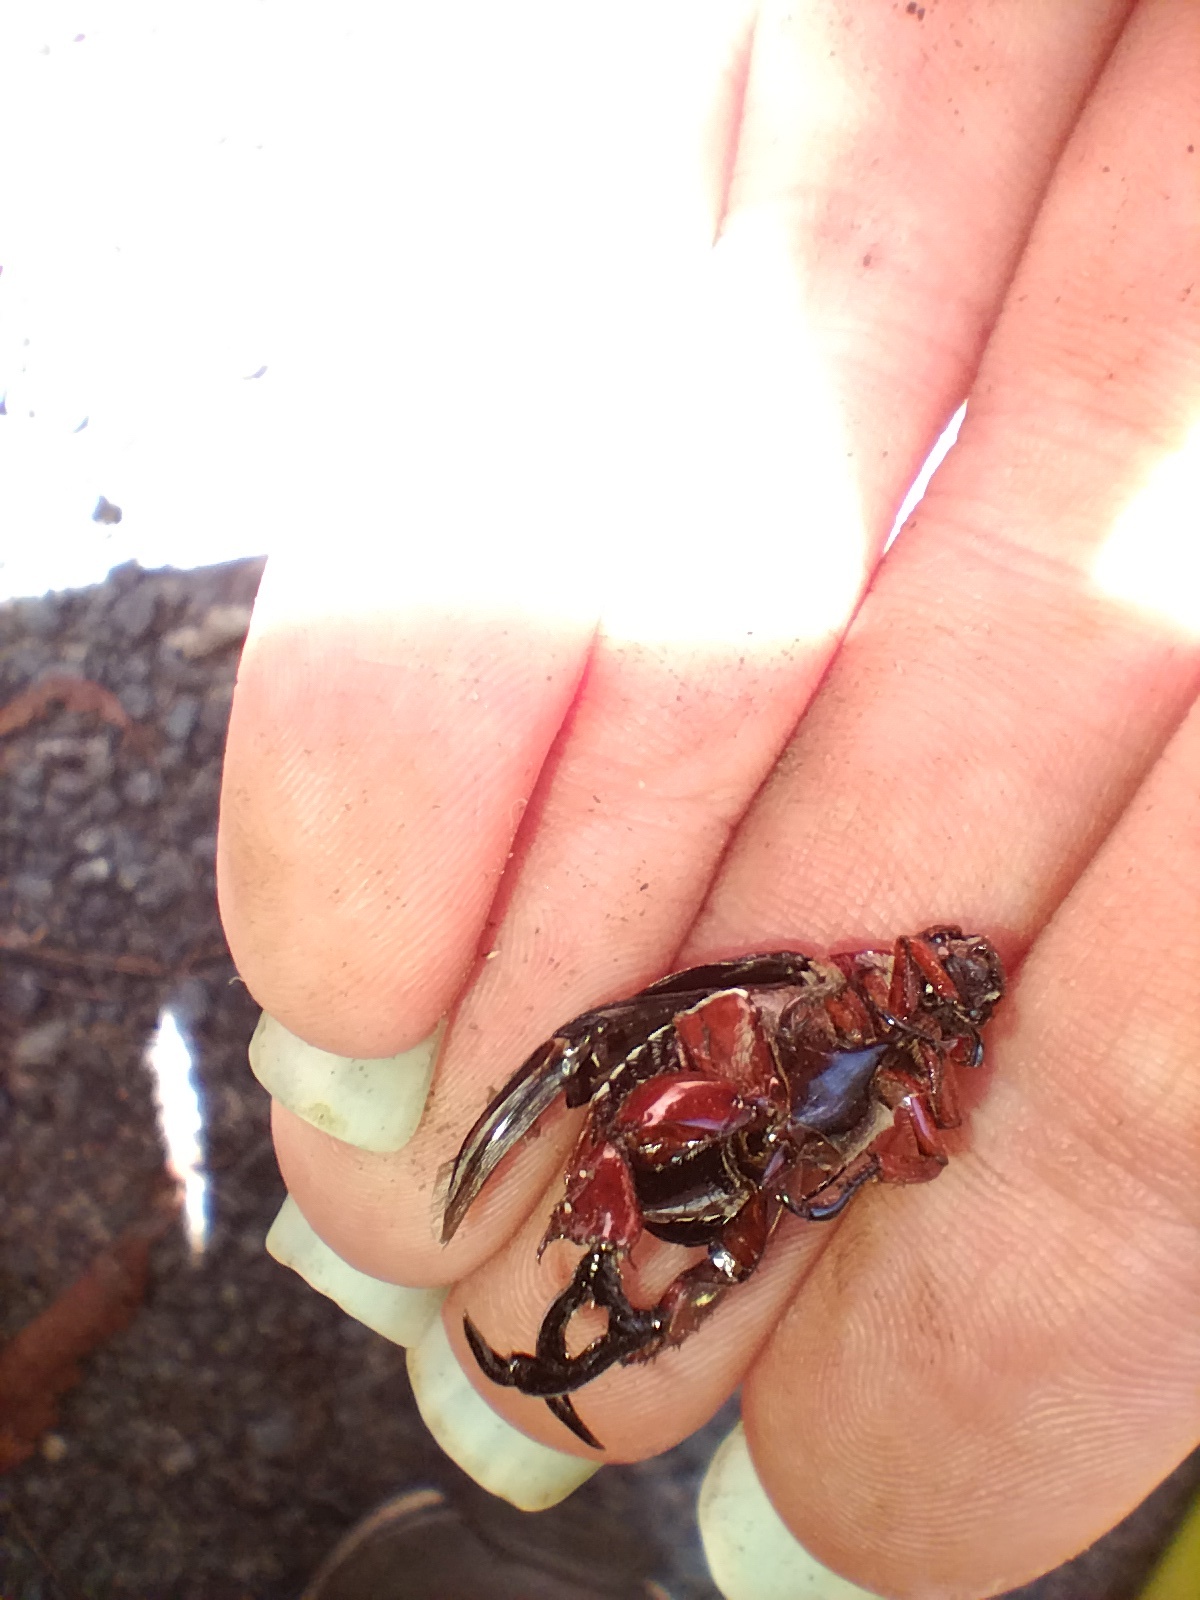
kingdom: Animalia
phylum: Arthropoda
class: Insecta
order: Coleoptera
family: Scarabaeidae
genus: Repsimus
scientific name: Repsimus manicatus
